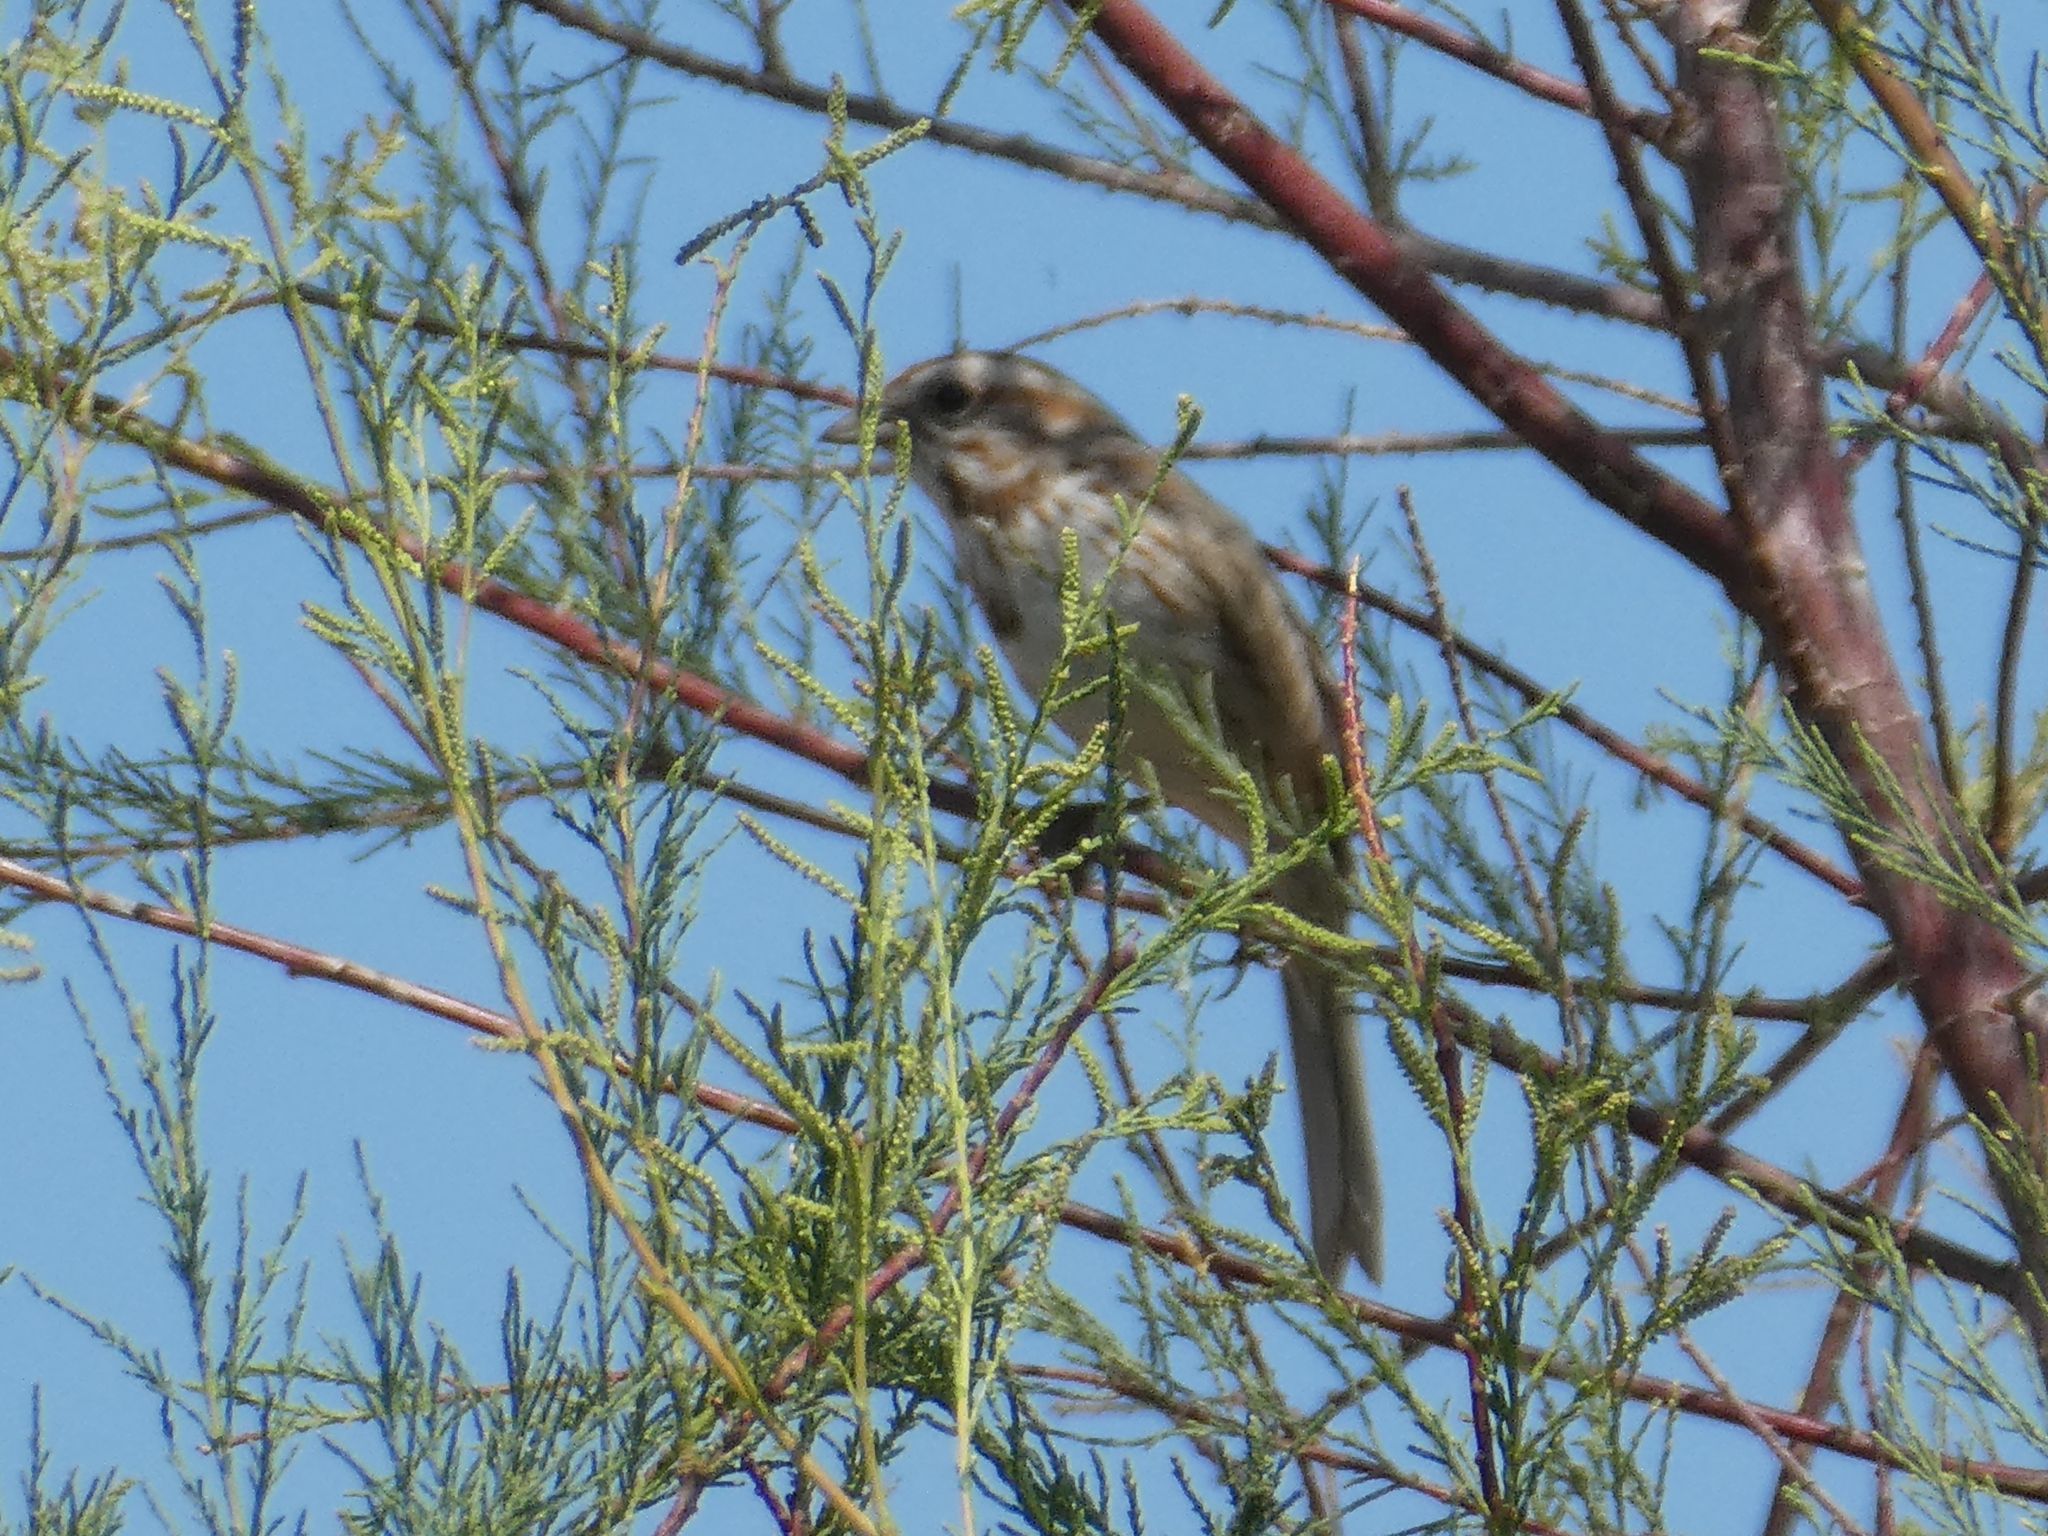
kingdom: Animalia
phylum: Chordata
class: Aves
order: Passeriformes
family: Passerellidae
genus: Melospiza
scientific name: Melospiza melodia
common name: Song sparrow
